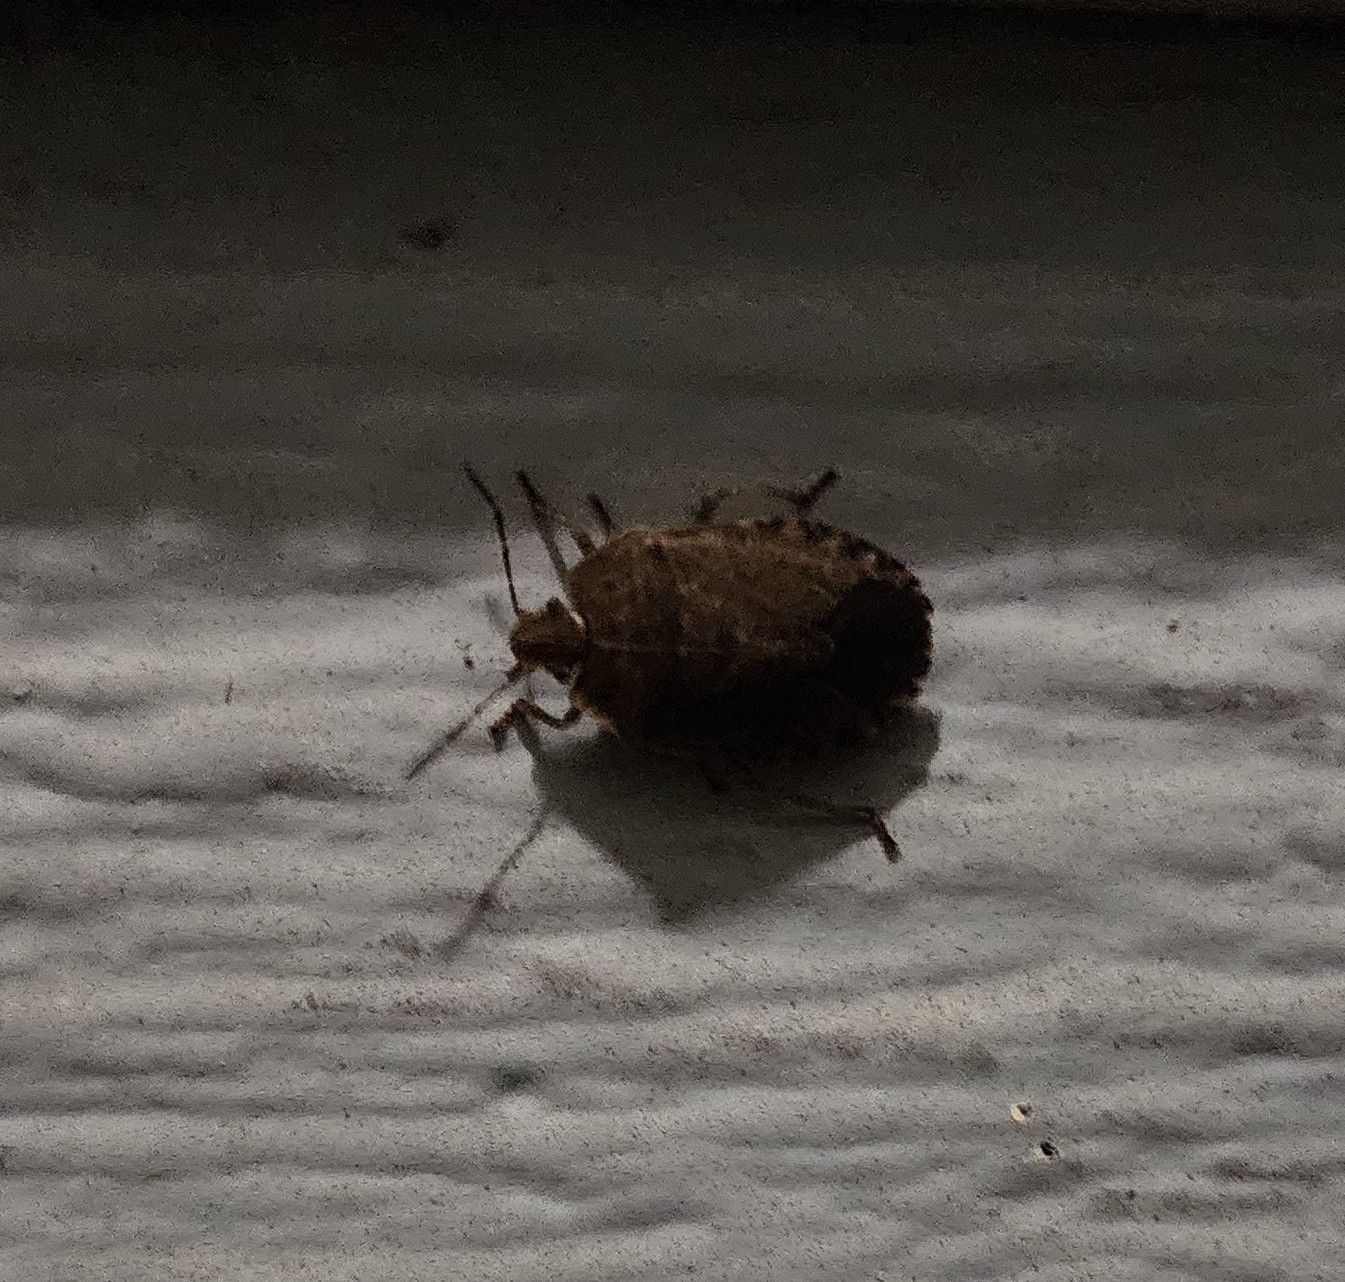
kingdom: Animalia
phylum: Arthropoda
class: Insecta
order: Hemiptera
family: Pentatomidae
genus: Menecles
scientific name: Menecles insertus
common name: Elf shoe stink bug
